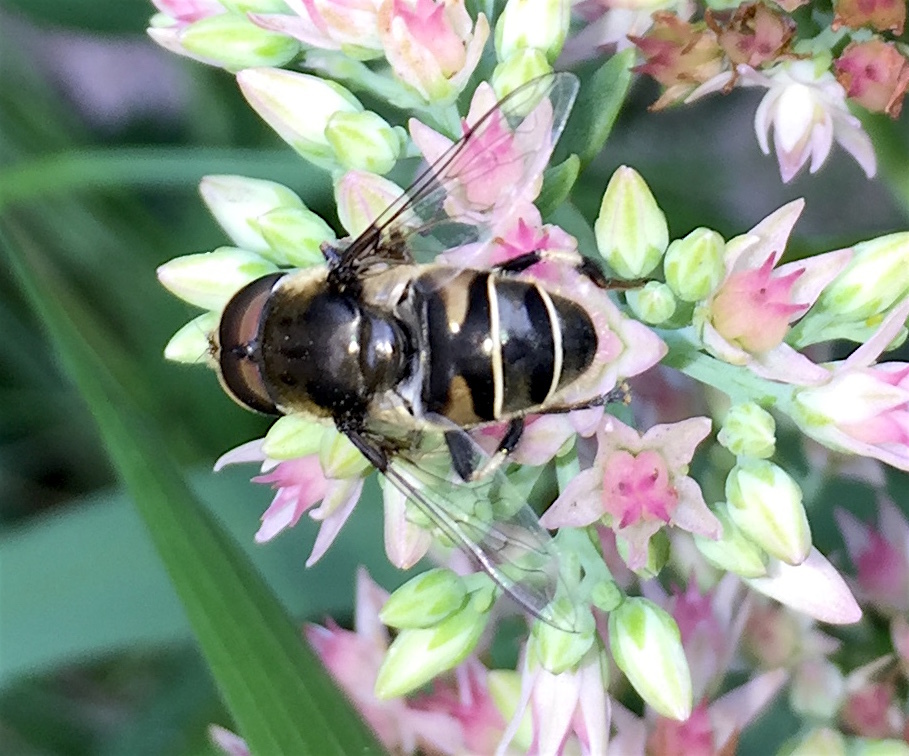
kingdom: Animalia
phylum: Arthropoda
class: Insecta
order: Diptera
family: Syrphidae
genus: Eristalis
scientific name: Eristalis dimidiata
